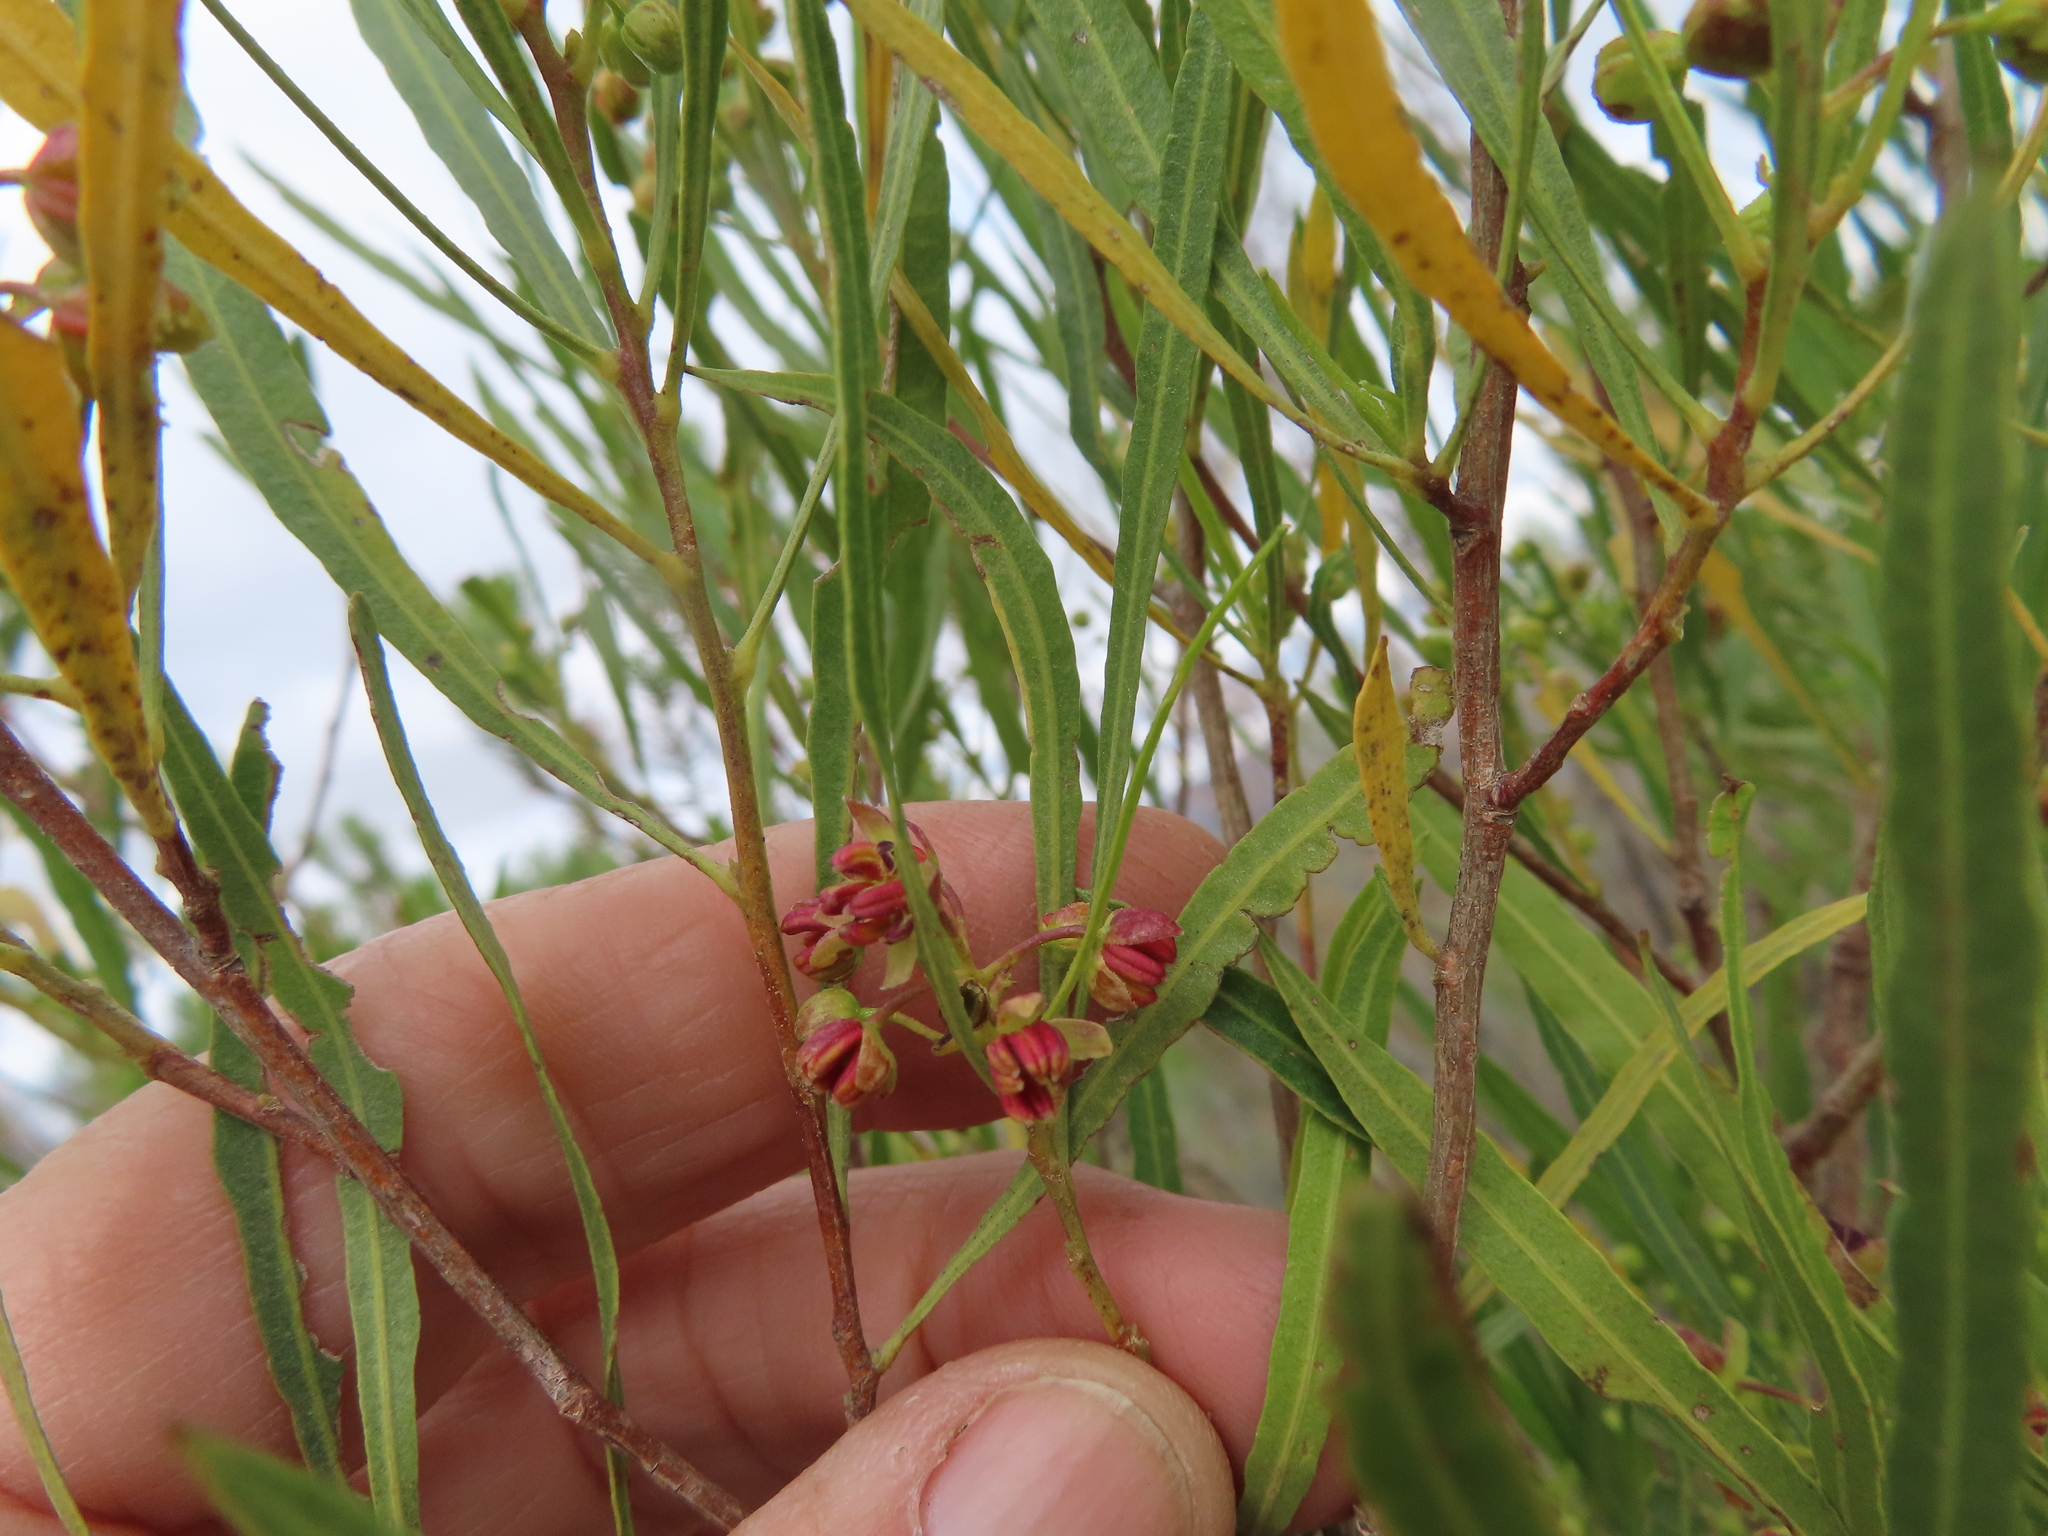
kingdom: Plantae
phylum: Tracheophyta
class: Magnoliopsida
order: Sapindales
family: Sapindaceae
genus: Dodonaea
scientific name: Dodonaea viscosa
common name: Hopbush
